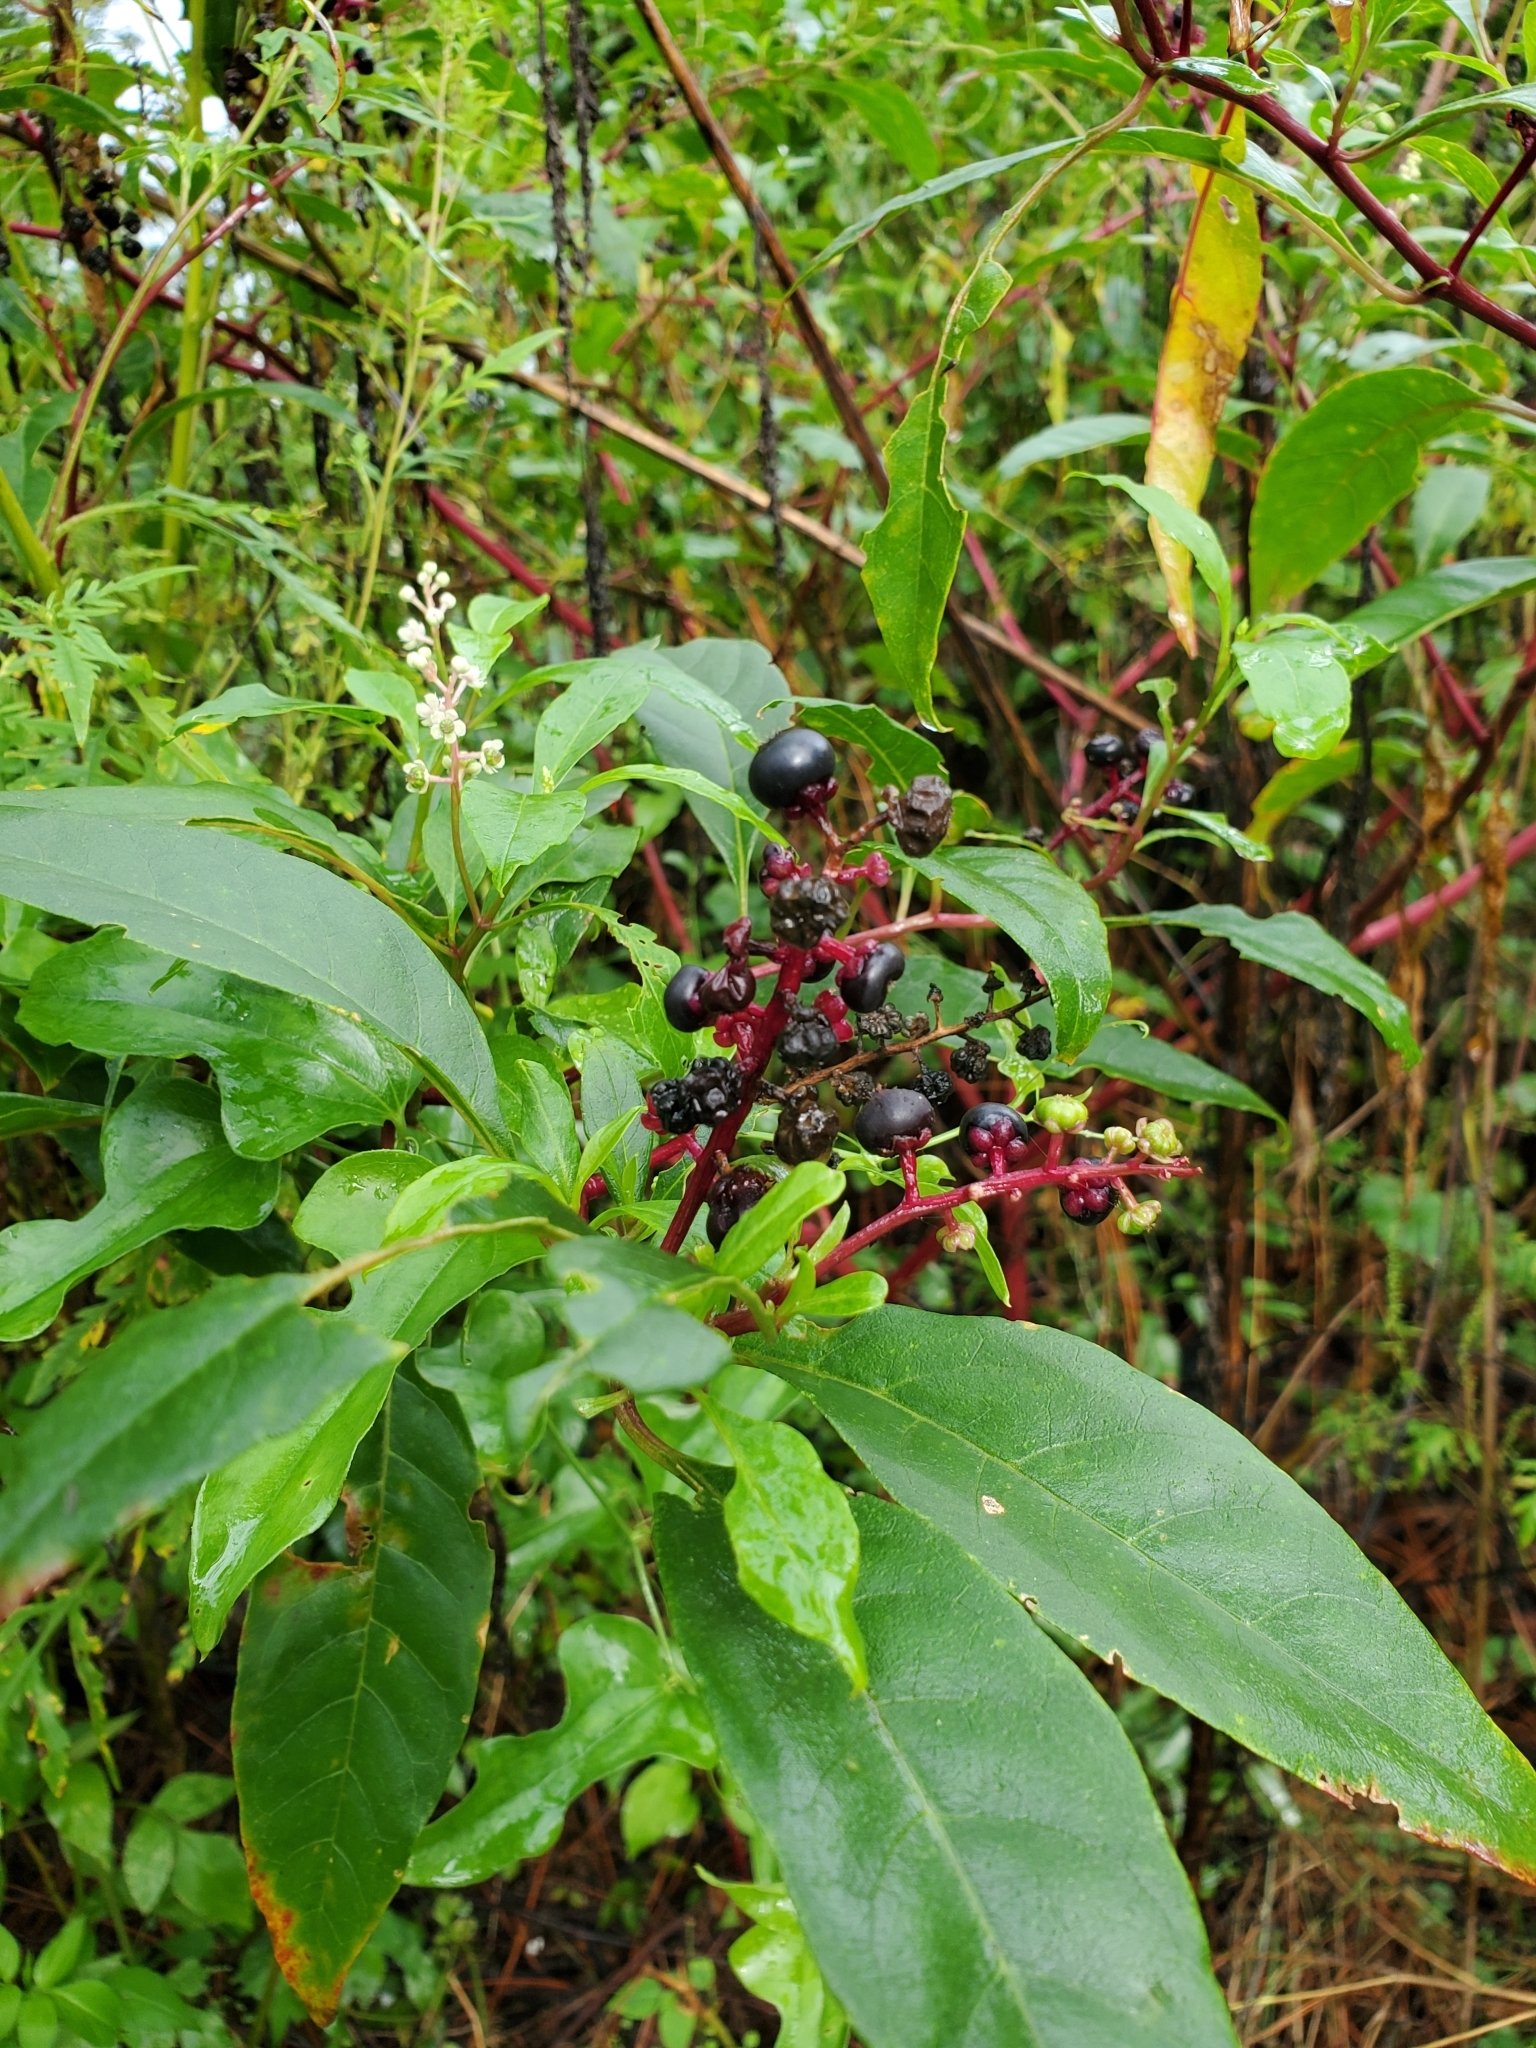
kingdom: Plantae
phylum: Tracheophyta
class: Magnoliopsida
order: Caryophyllales
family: Phytolaccaceae
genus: Phytolacca
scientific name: Phytolacca americana
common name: American pokeweed
